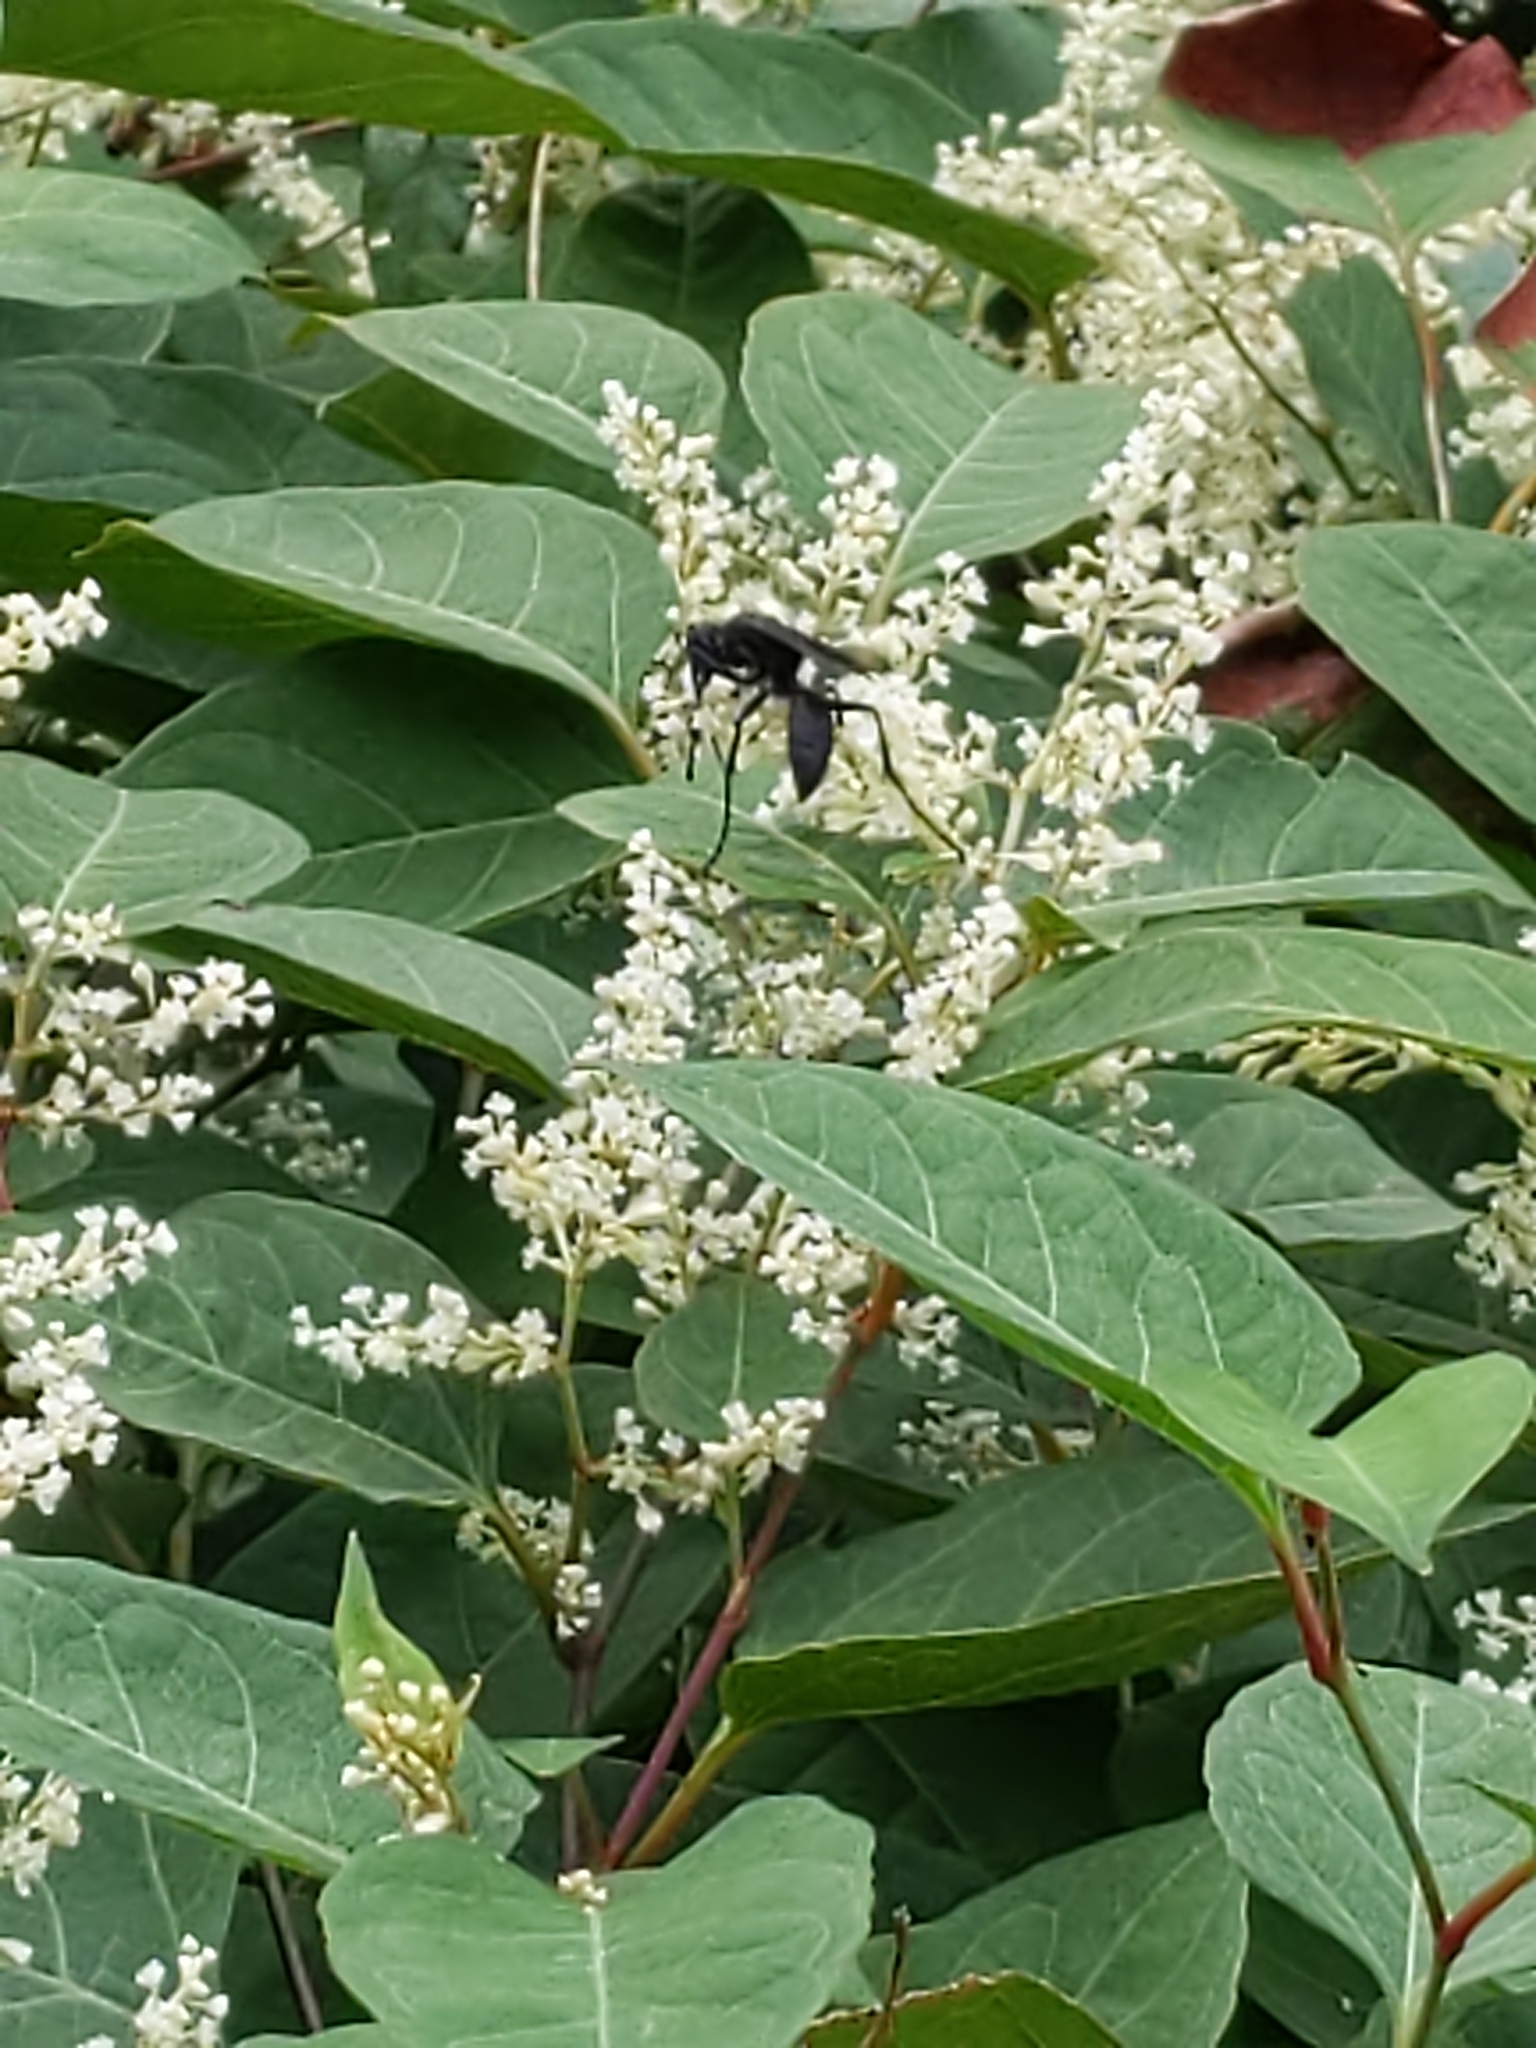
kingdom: Animalia
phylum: Arthropoda
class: Insecta
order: Hymenoptera
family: Sphecidae
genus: Sphex
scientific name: Sphex pensylvanicus
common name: Great black digger wasp
